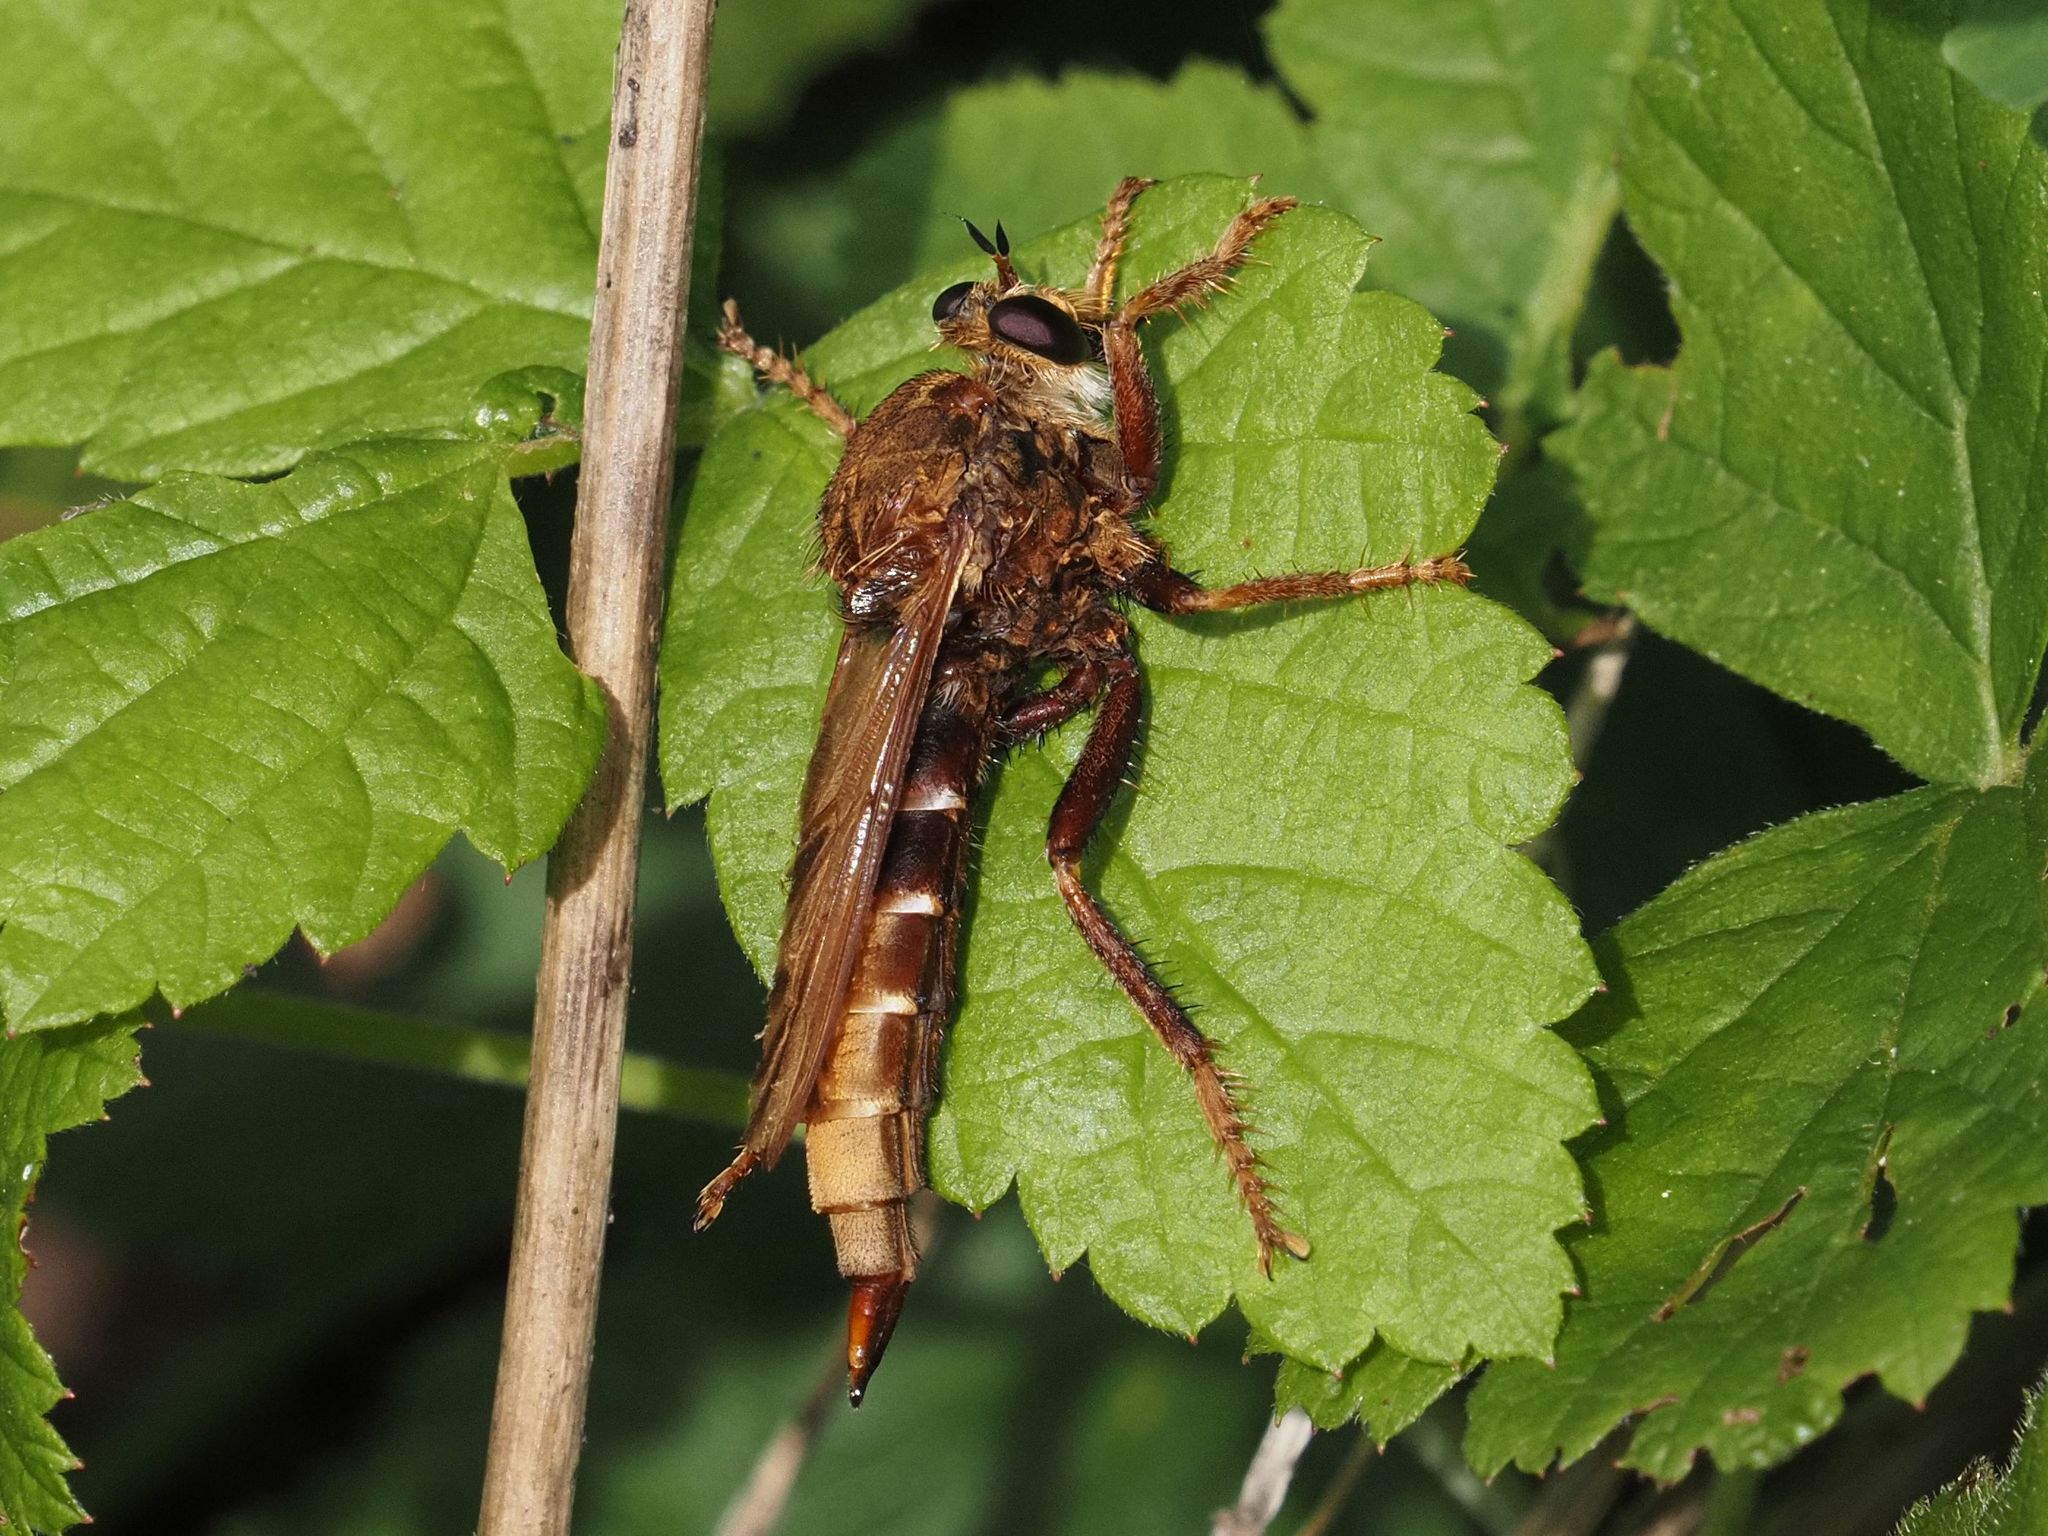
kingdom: Animalia
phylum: Arthropoda
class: Insecta
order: Diptera
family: Asilidae
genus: Asilus
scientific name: Asilus crabroniformis
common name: Hornet robberfly
